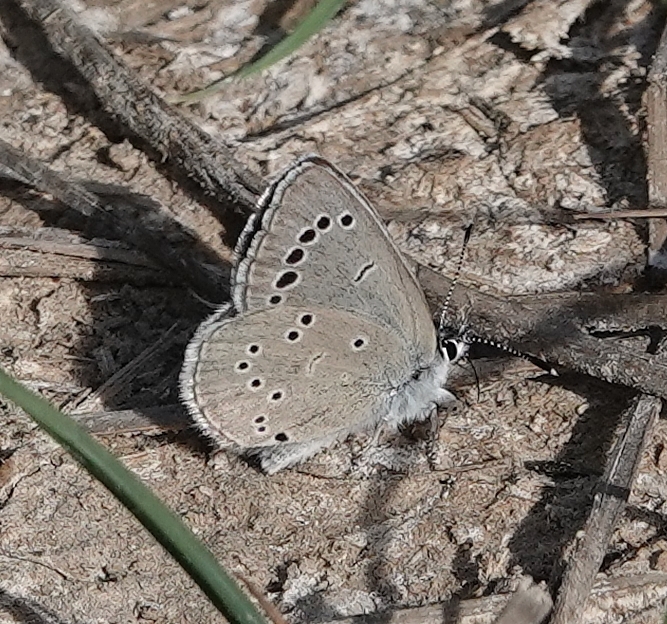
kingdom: Animalia
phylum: Arthropoda
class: Insecta
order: Lepidoptera
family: Lycaenidae
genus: Glaucopsyche
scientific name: Glaucopsyche lygdamus
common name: Silvery blue
